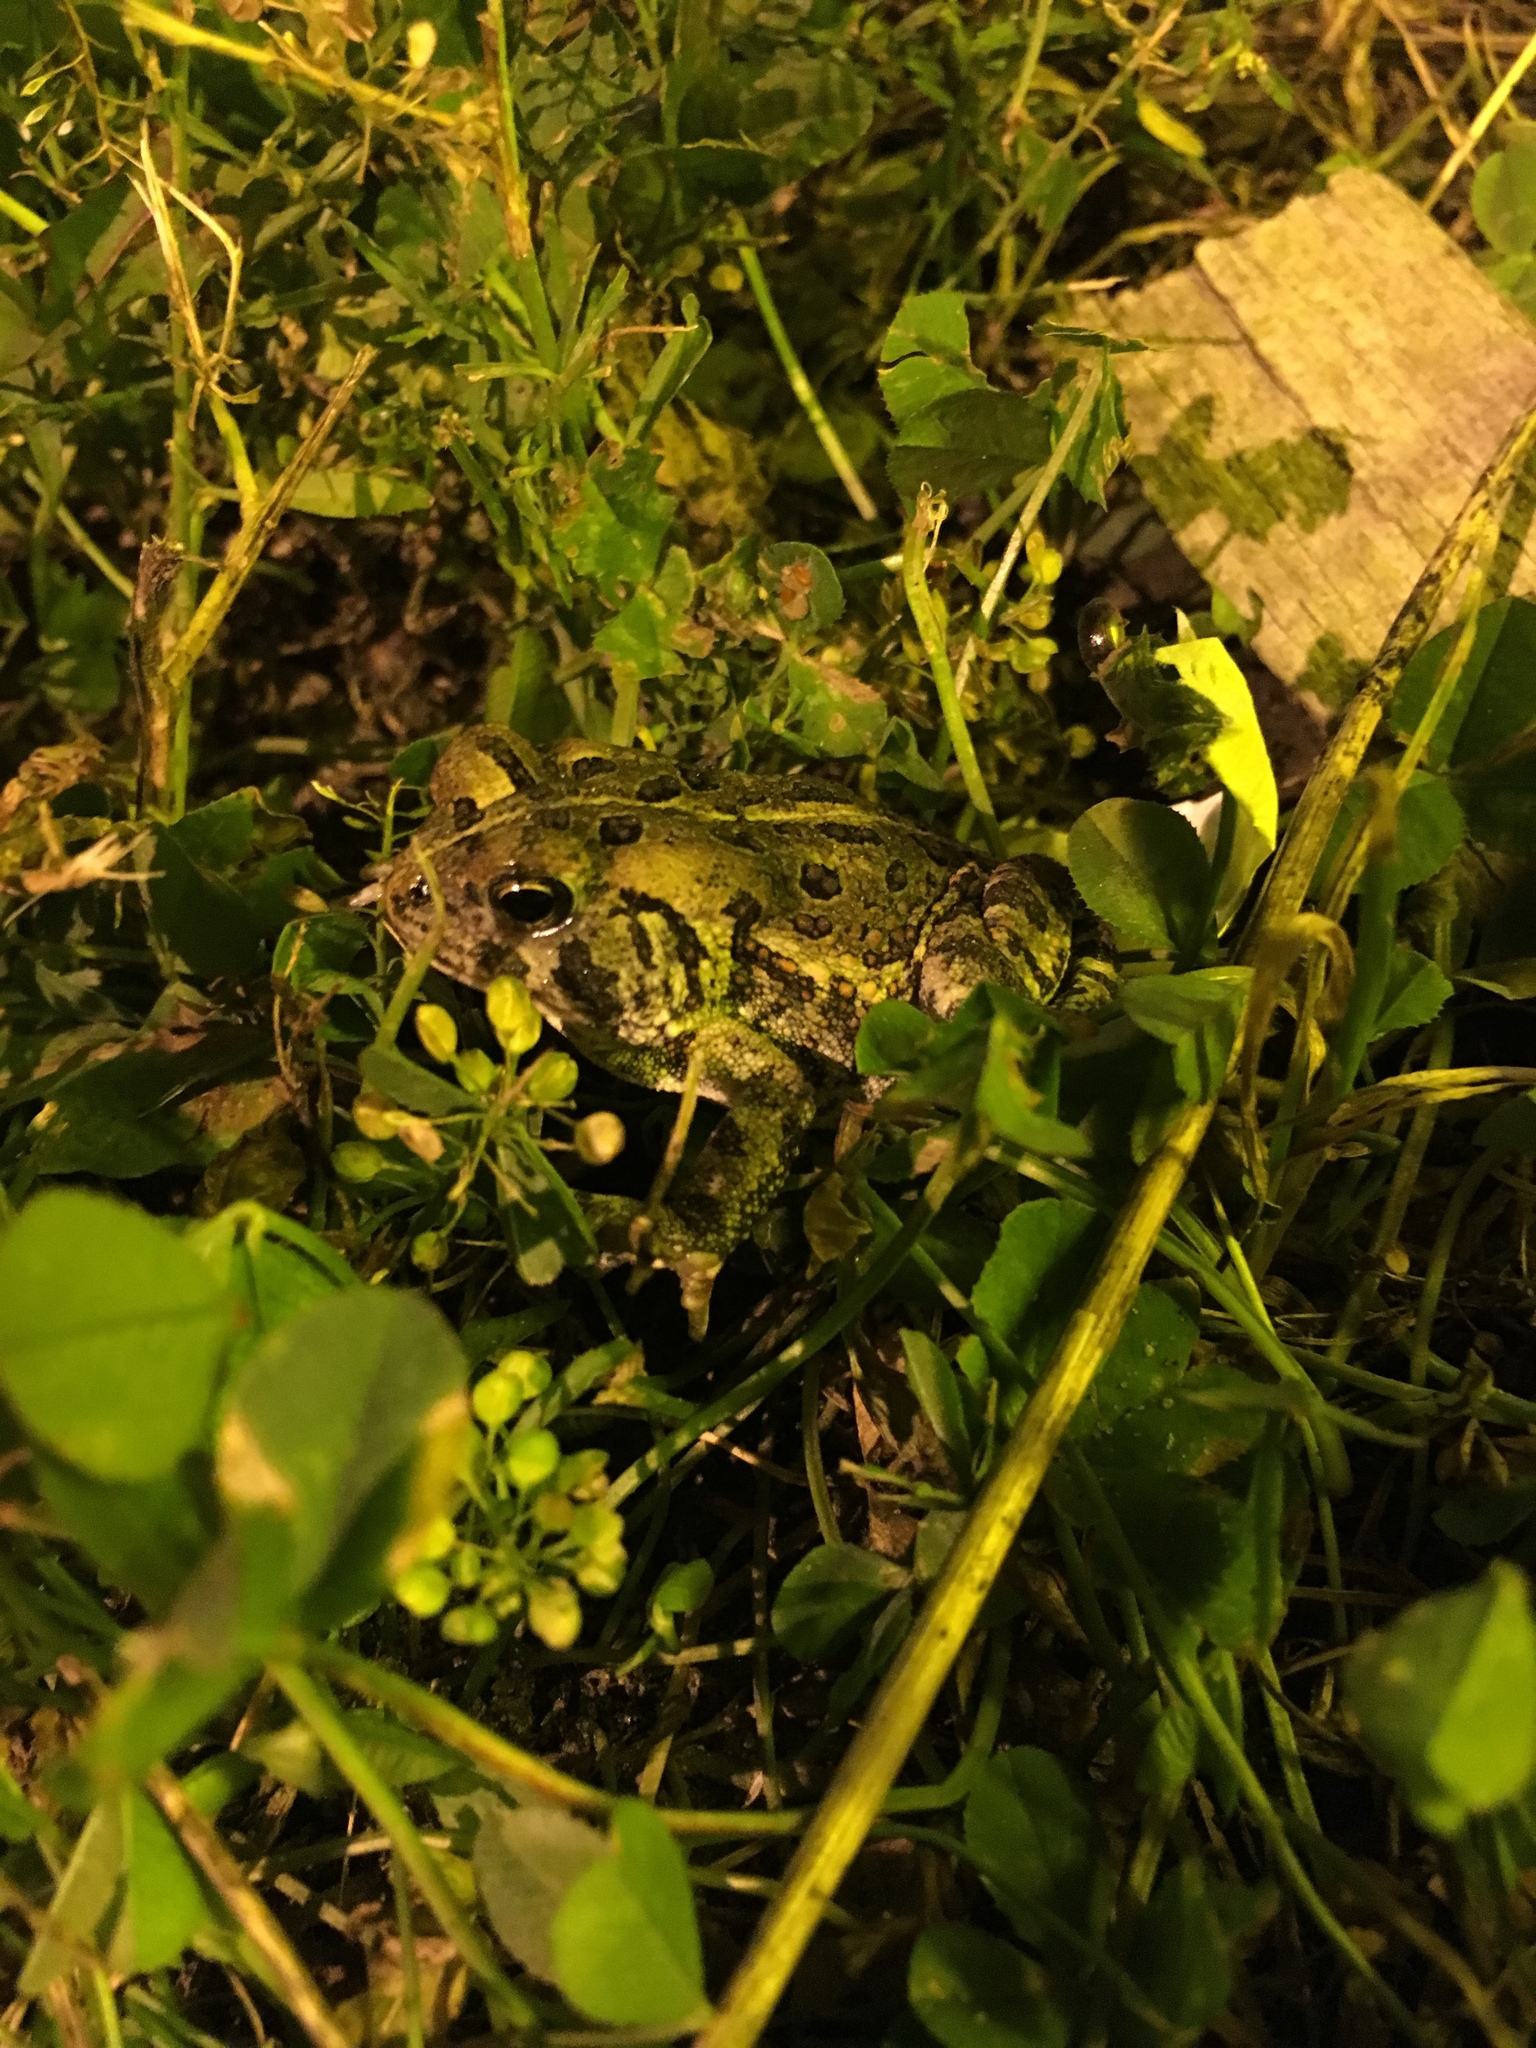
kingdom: Animalia
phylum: Chordata
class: Amphibia
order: Anura
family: Bufonidae
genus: Anaxyrus
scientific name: Anaxyrus fowleri
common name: Fowler's toad
